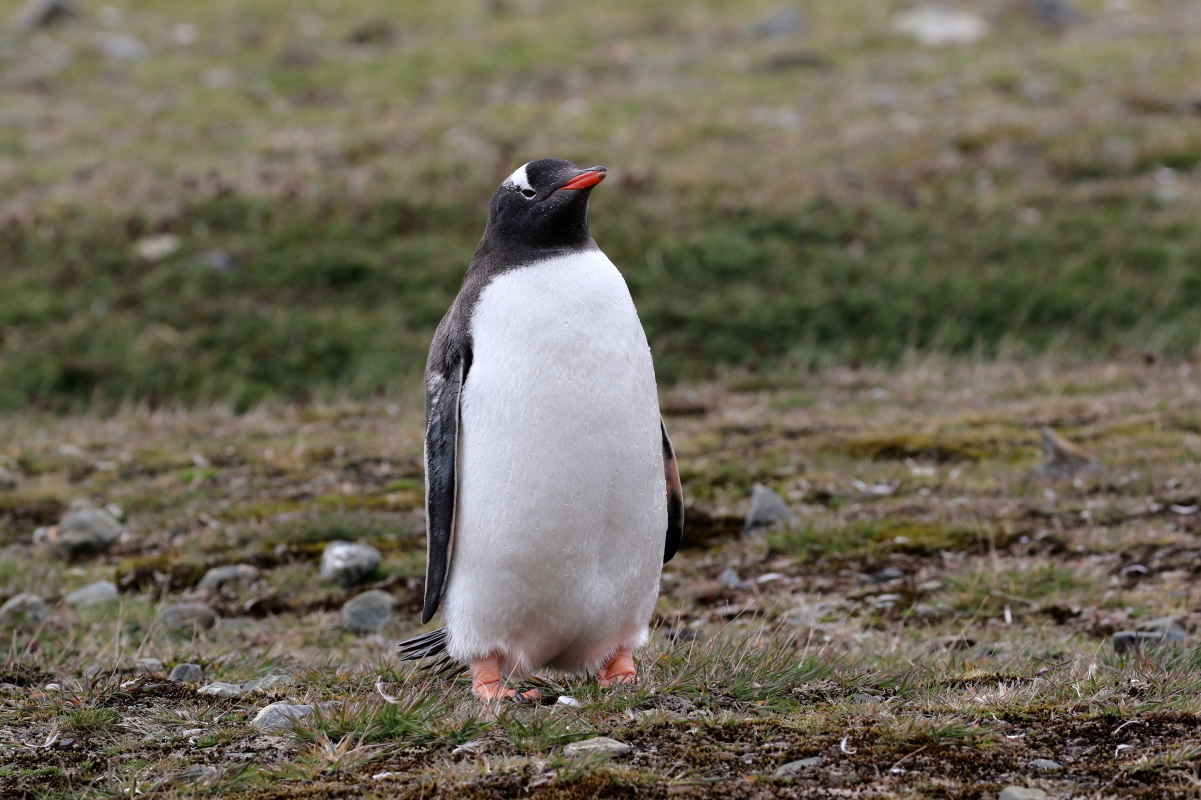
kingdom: Animalia
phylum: Chordata
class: Aves
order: Sphenisciformes
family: Spheniscidae
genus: Pygoscelis
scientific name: Pygoscelis papua
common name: Gentoo penguin
